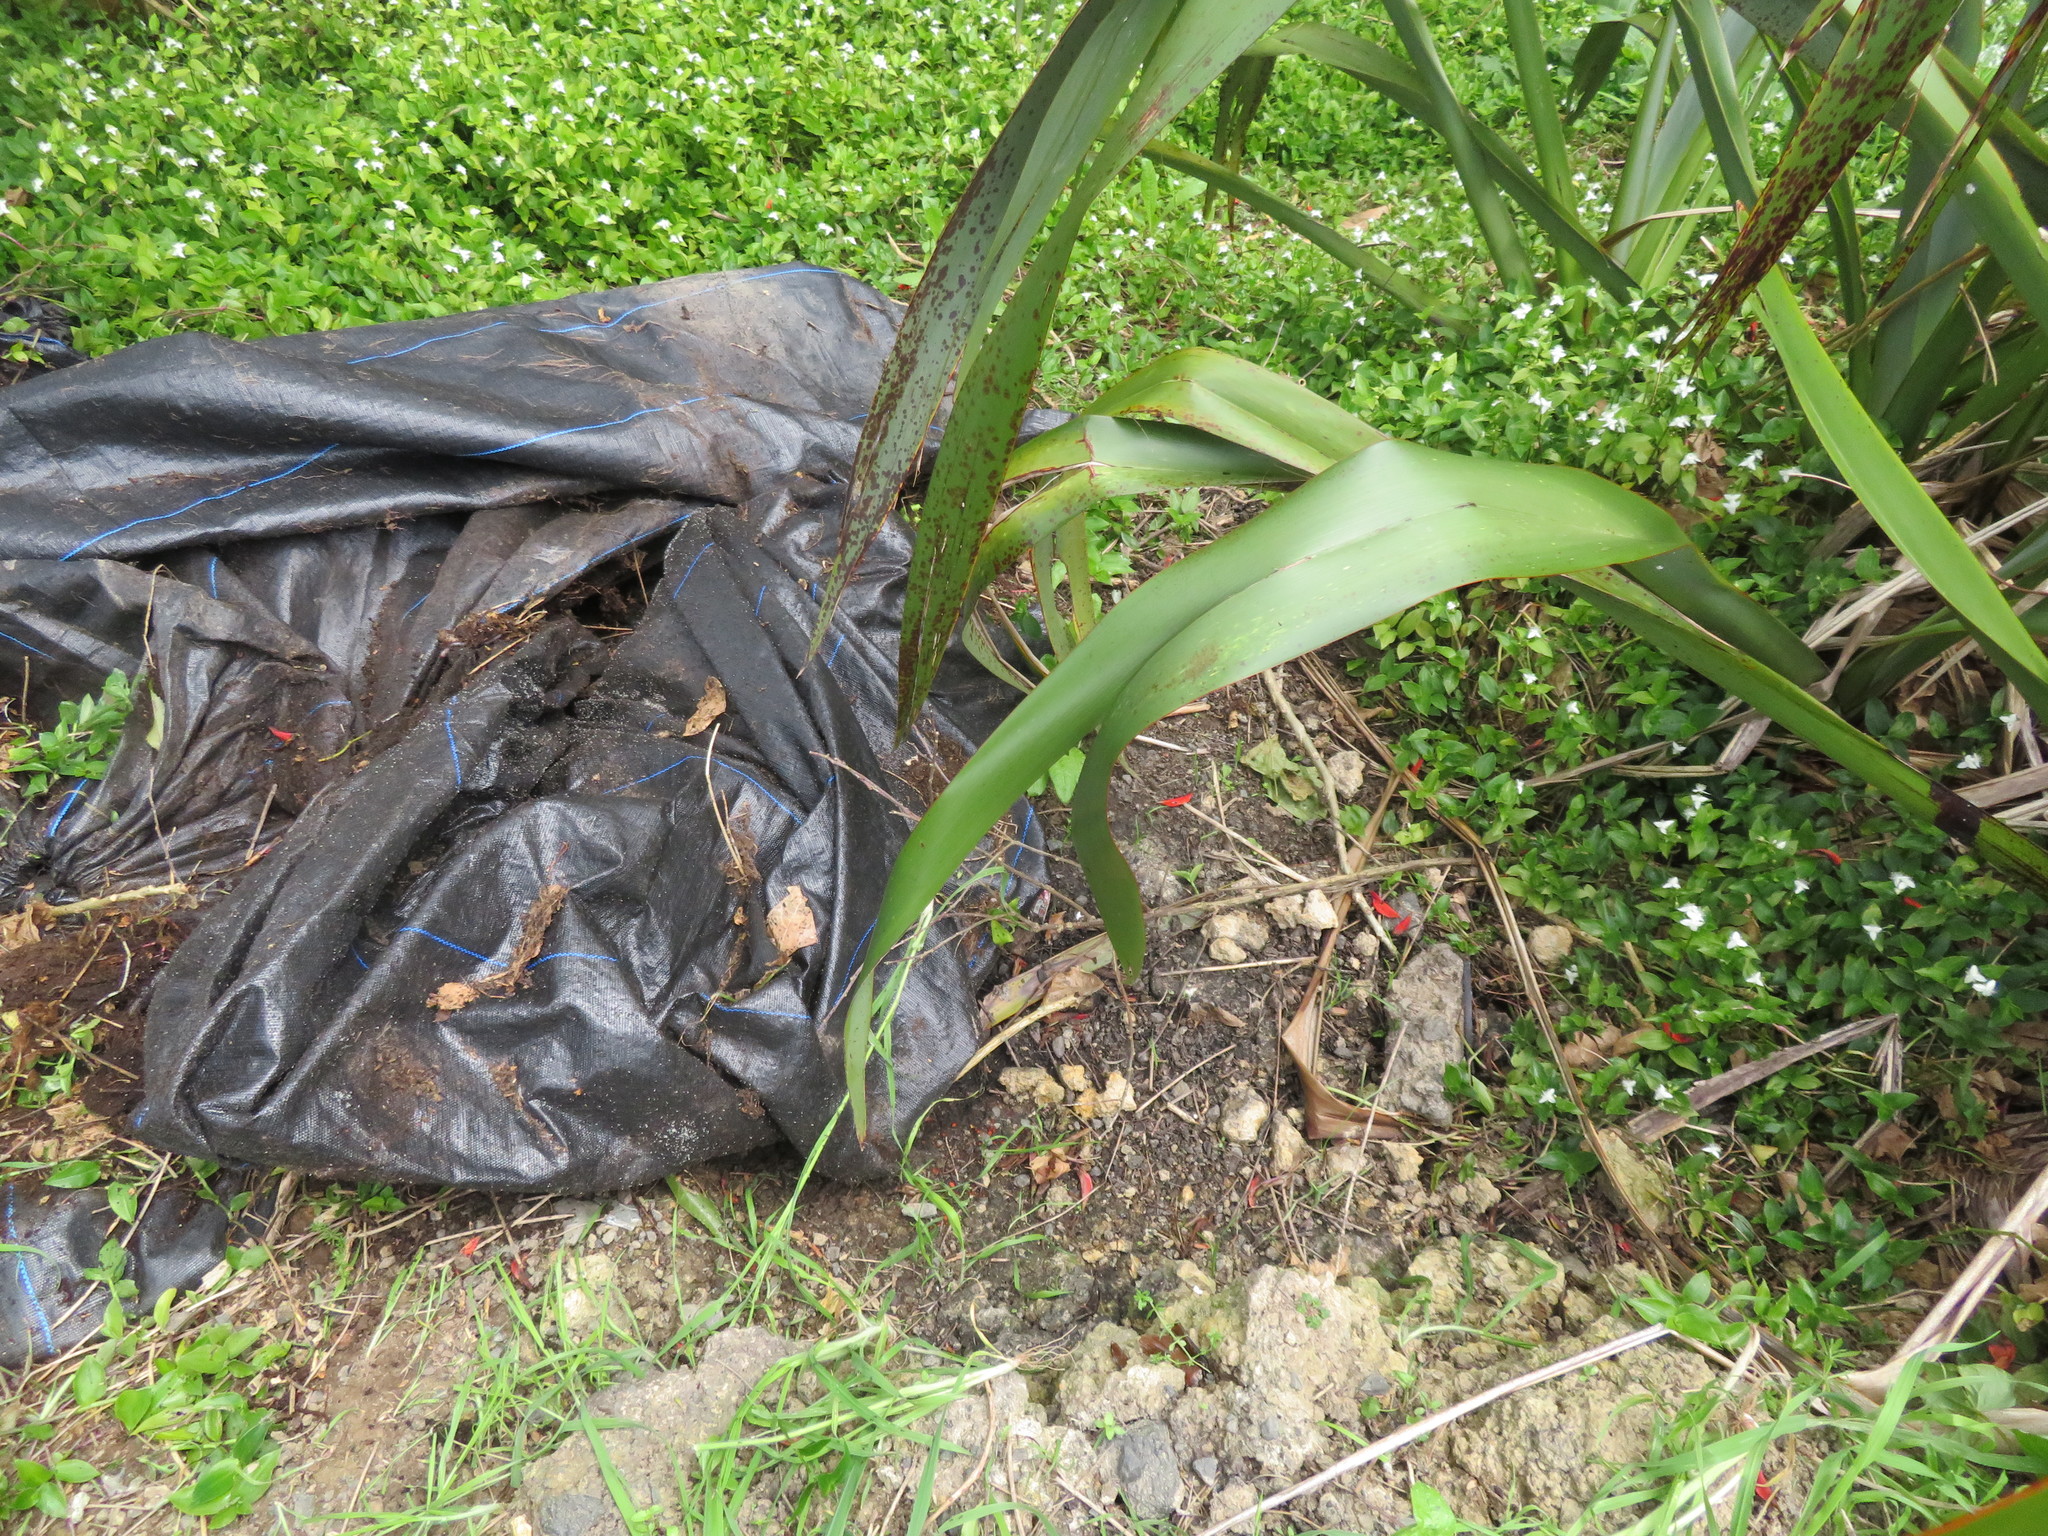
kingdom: Animalia
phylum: Arthropoda
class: Chilopoda
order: Scolopendromorpha
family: Scolopendridae
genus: Cormocephalus
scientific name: Cormocephalus rubriceps
